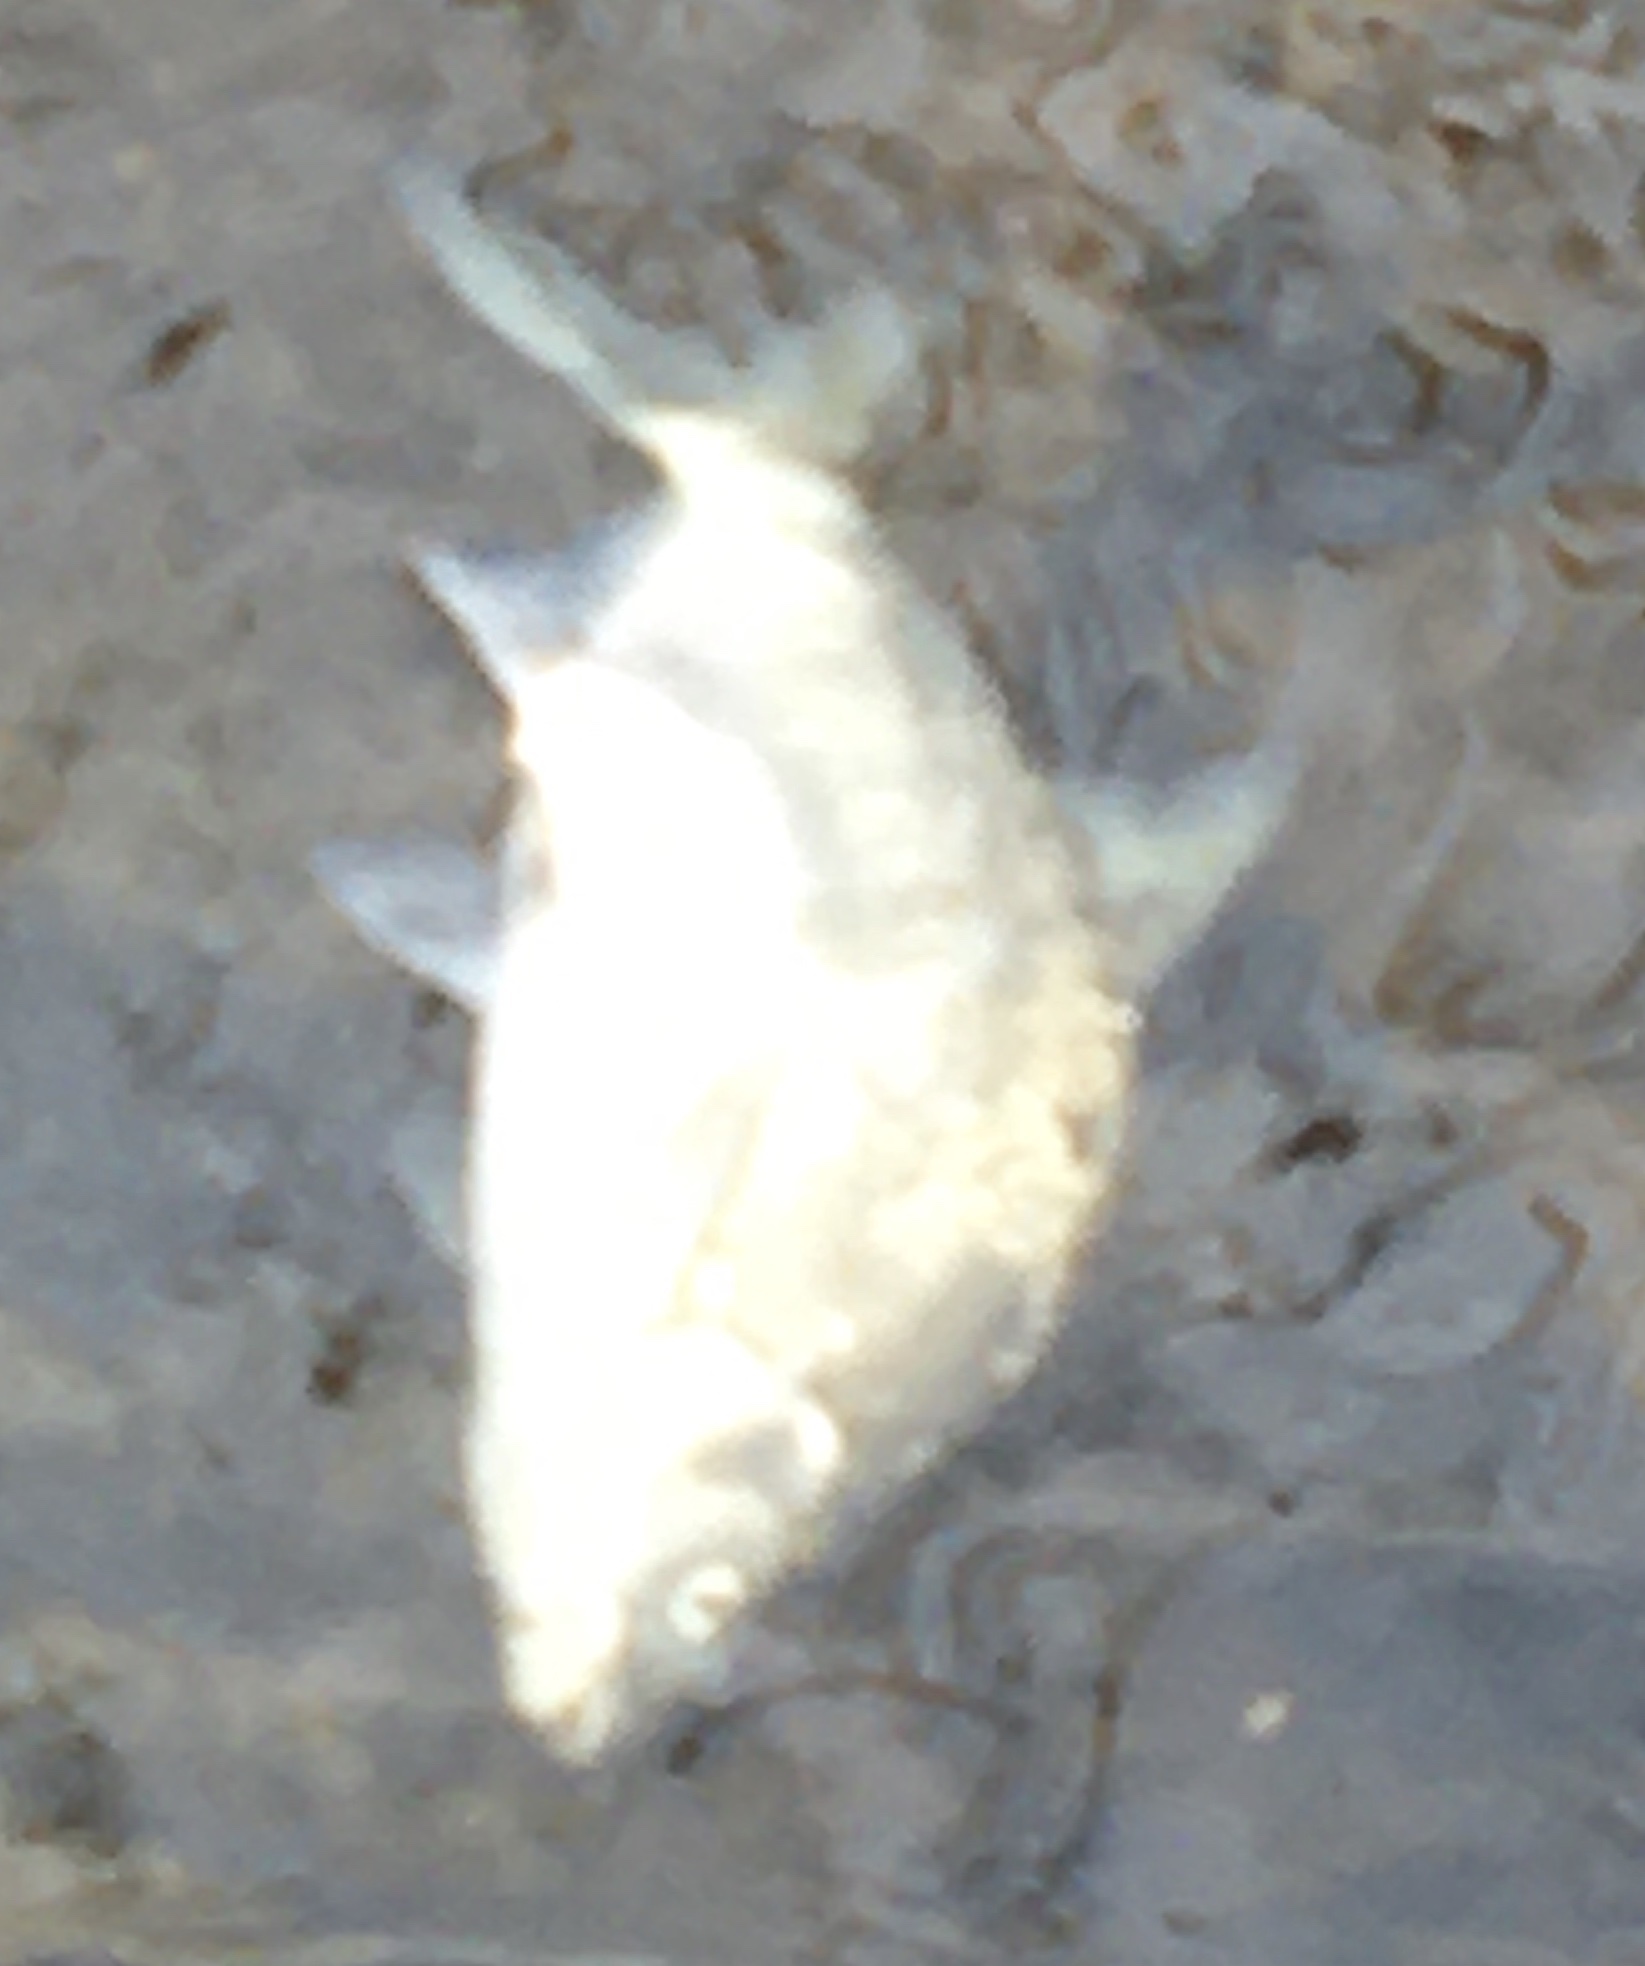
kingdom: Animalia
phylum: Chordata
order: Cypriniformes
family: Cyprinidae
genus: Abramis
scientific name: Abramis brama
